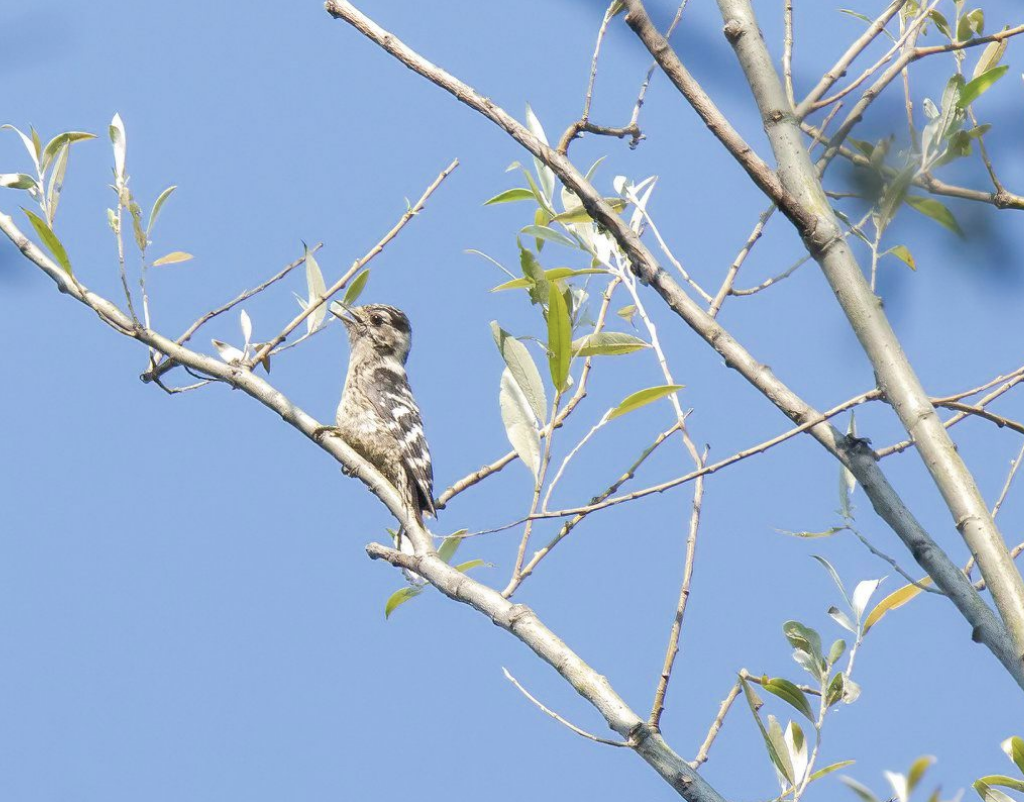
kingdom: Animalia
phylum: Chordata
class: Aves
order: Piciformes
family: Picidae
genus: Dryobates
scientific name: Dryobates minor
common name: Lesser spotted woodpecker
